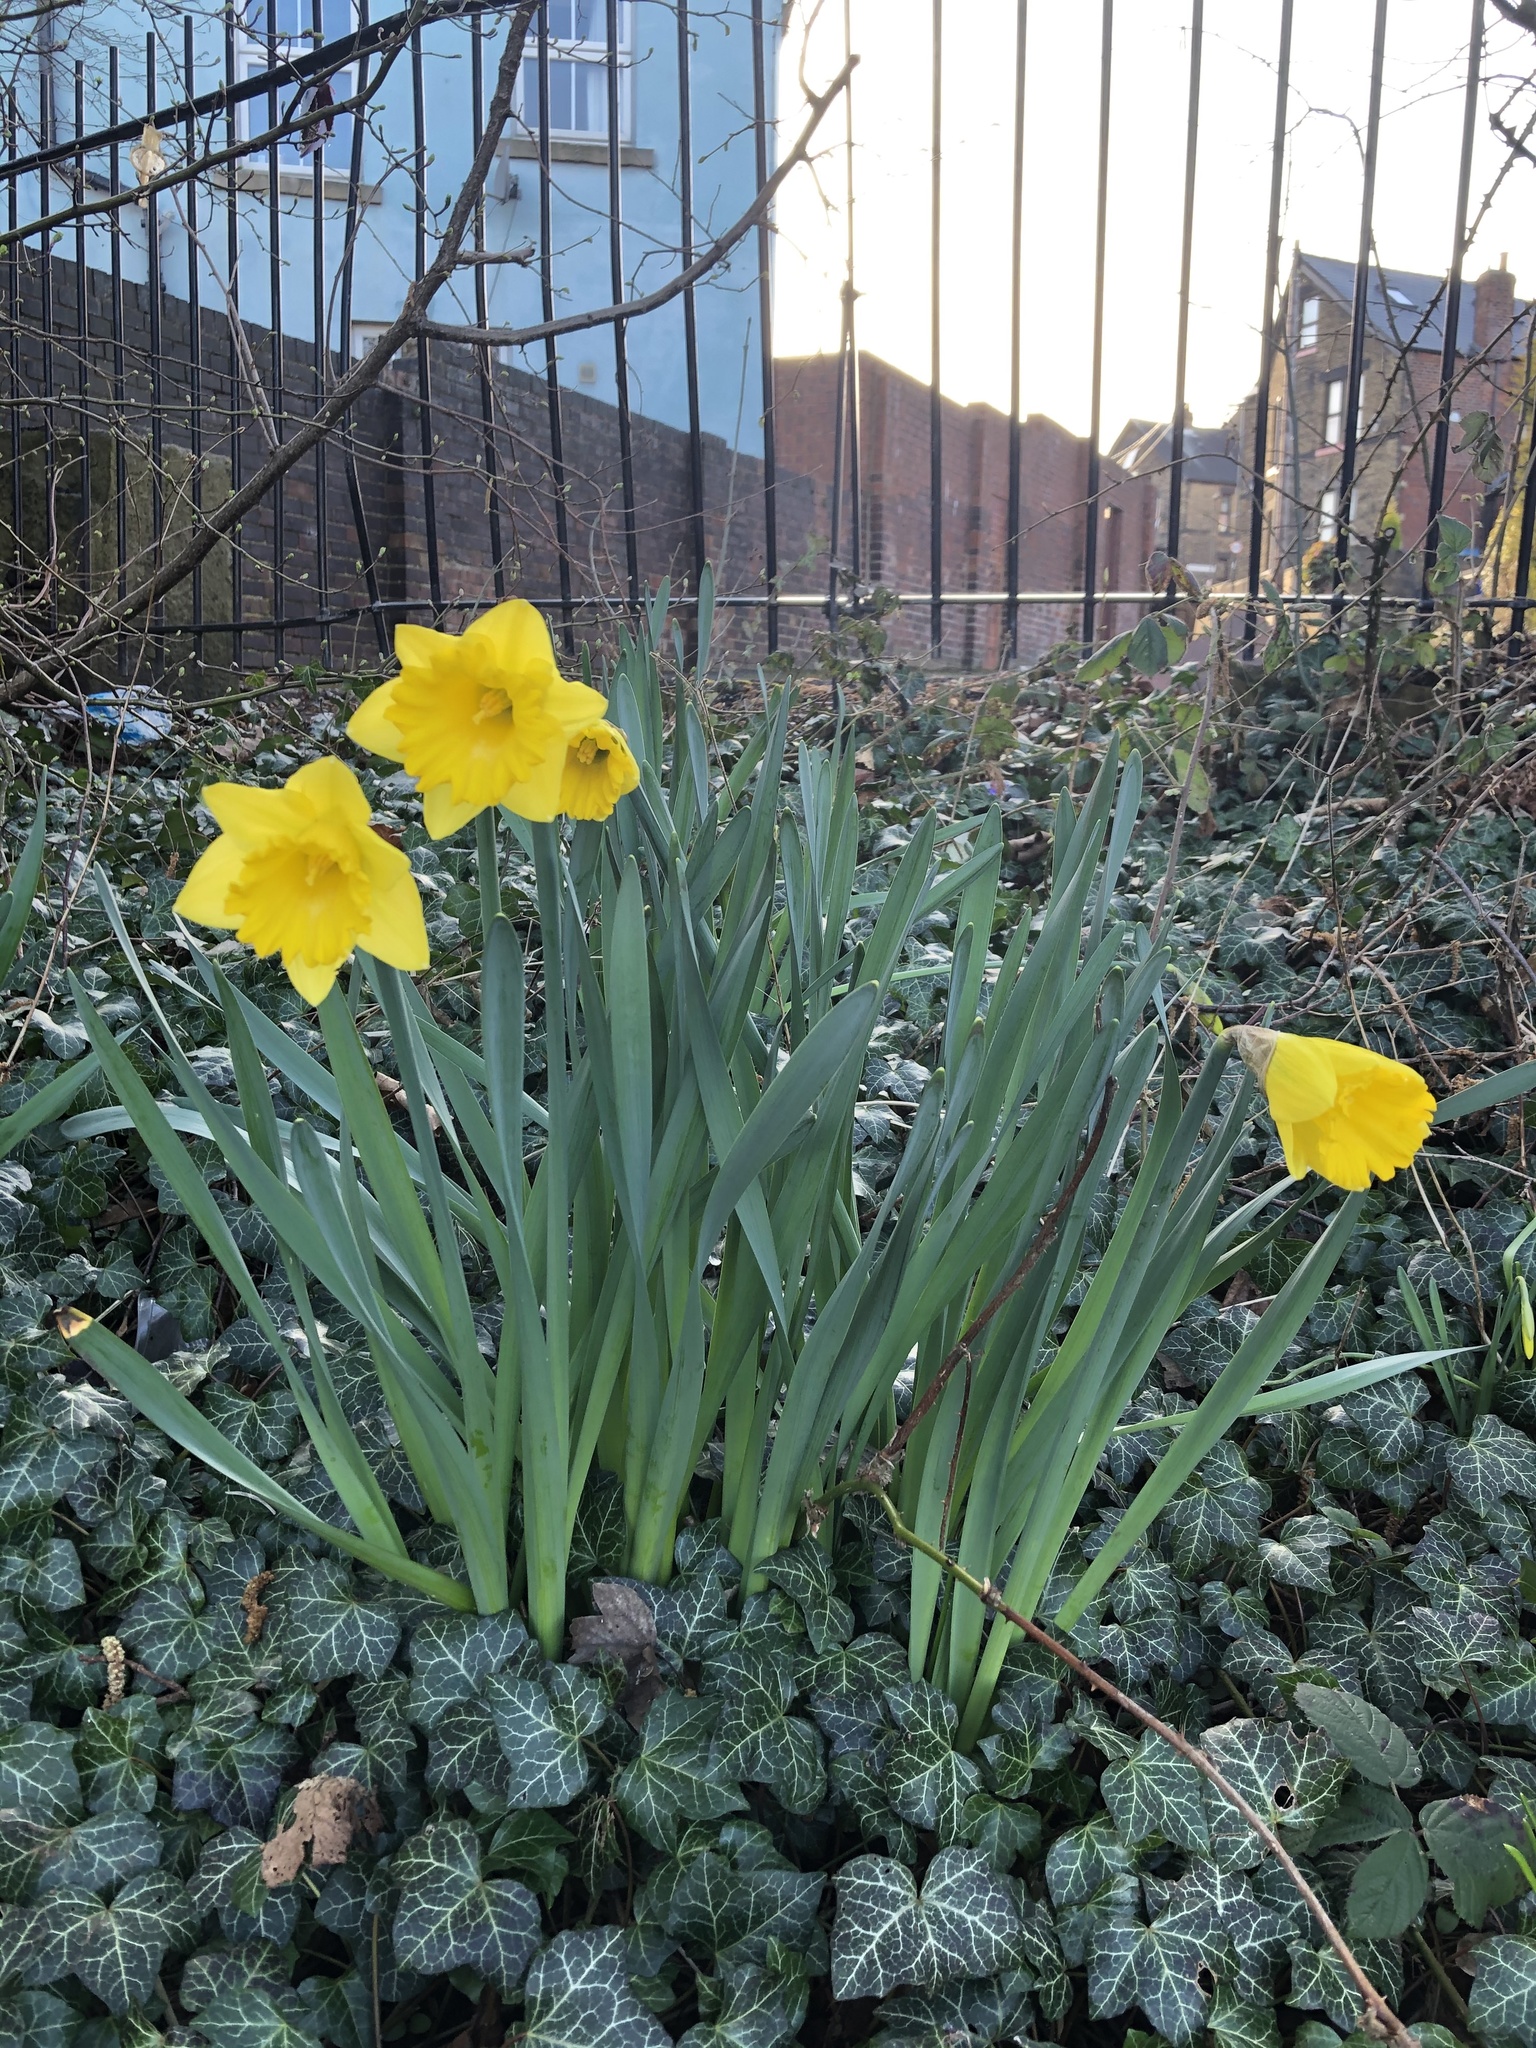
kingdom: Plantae
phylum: Tracheophyta
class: Liliopsida
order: Asparagales
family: Amaryllidaceae
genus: Narcissus
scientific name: Narcissus
